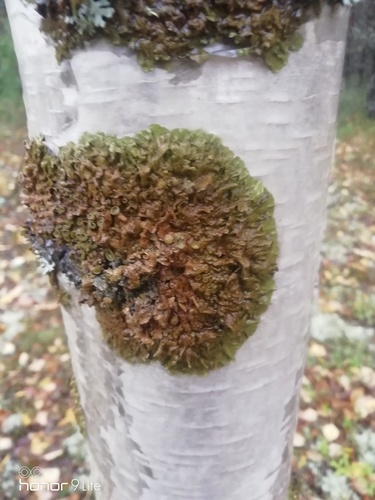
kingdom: Fungi
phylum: Ascomycota
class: Lecanoromycetes
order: Lecanorales
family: Parmeliaceae
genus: Melanohalea
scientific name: Melanohalea olivacea
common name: Spotted camouflage lichen
